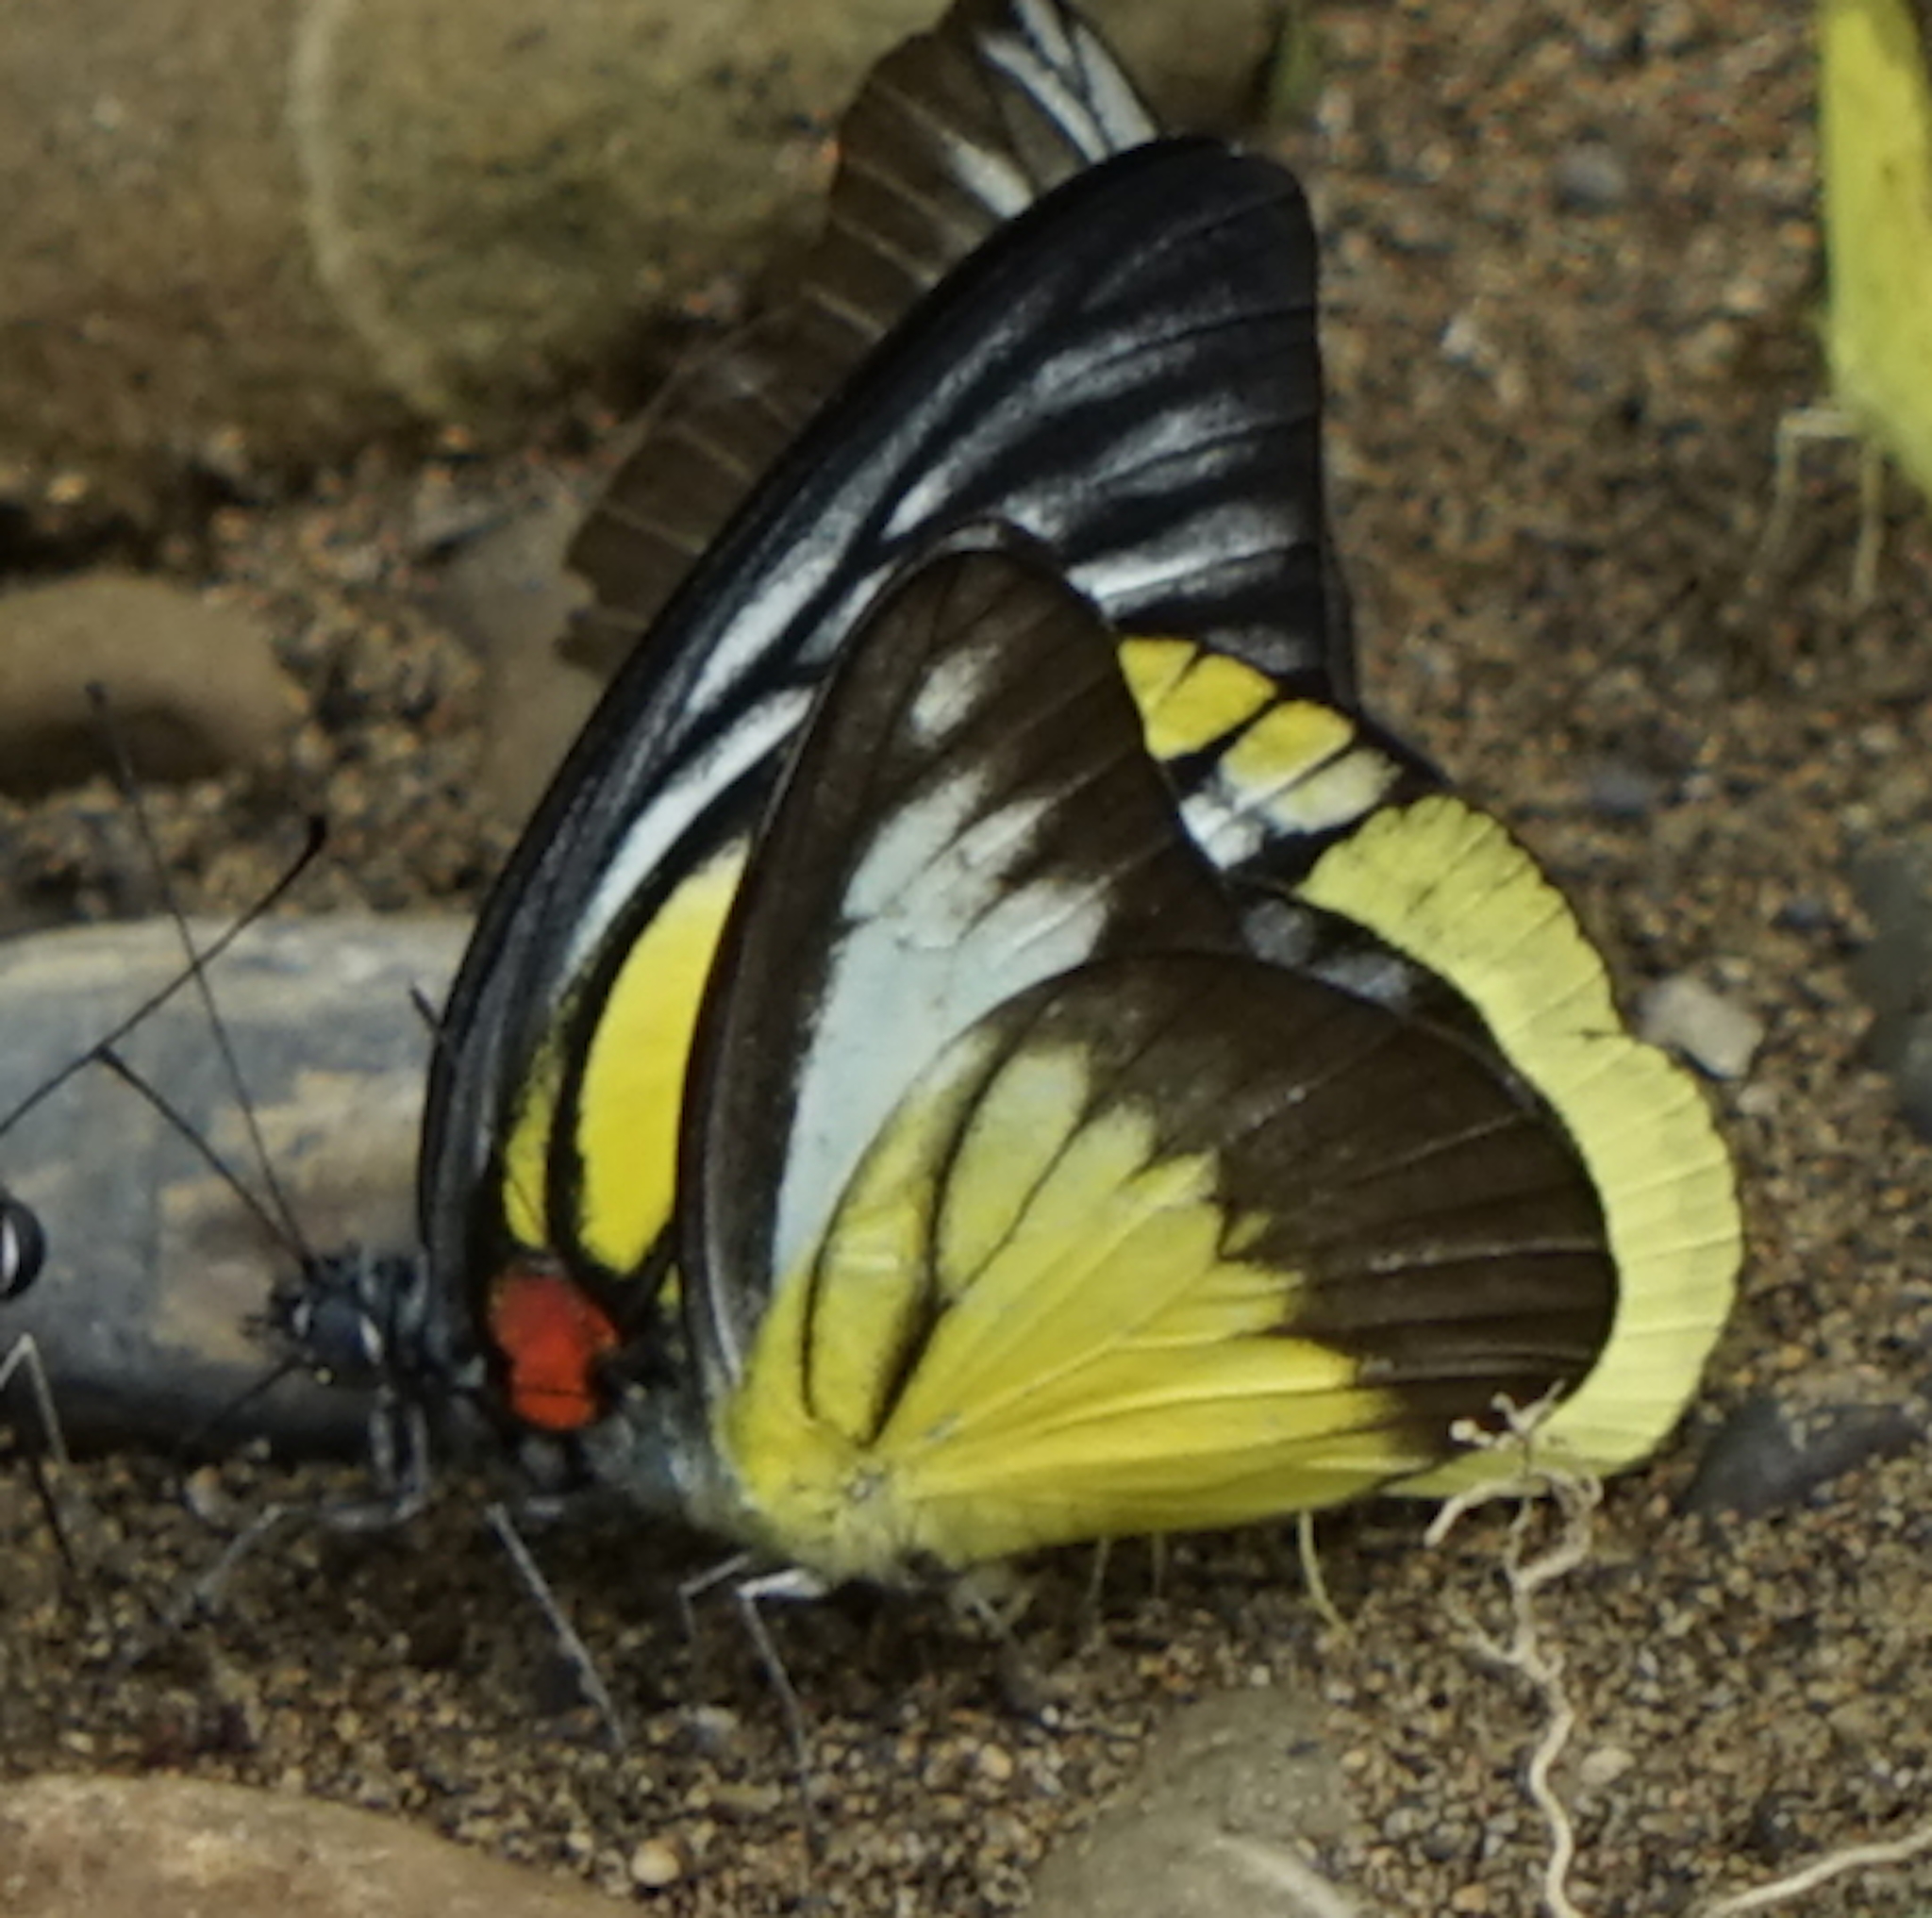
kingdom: Animalia
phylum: Arthropoda
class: Insecta
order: Lepidoptera
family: Pieridae
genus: Appias
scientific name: Appias lyncida
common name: Chocolate albatross
